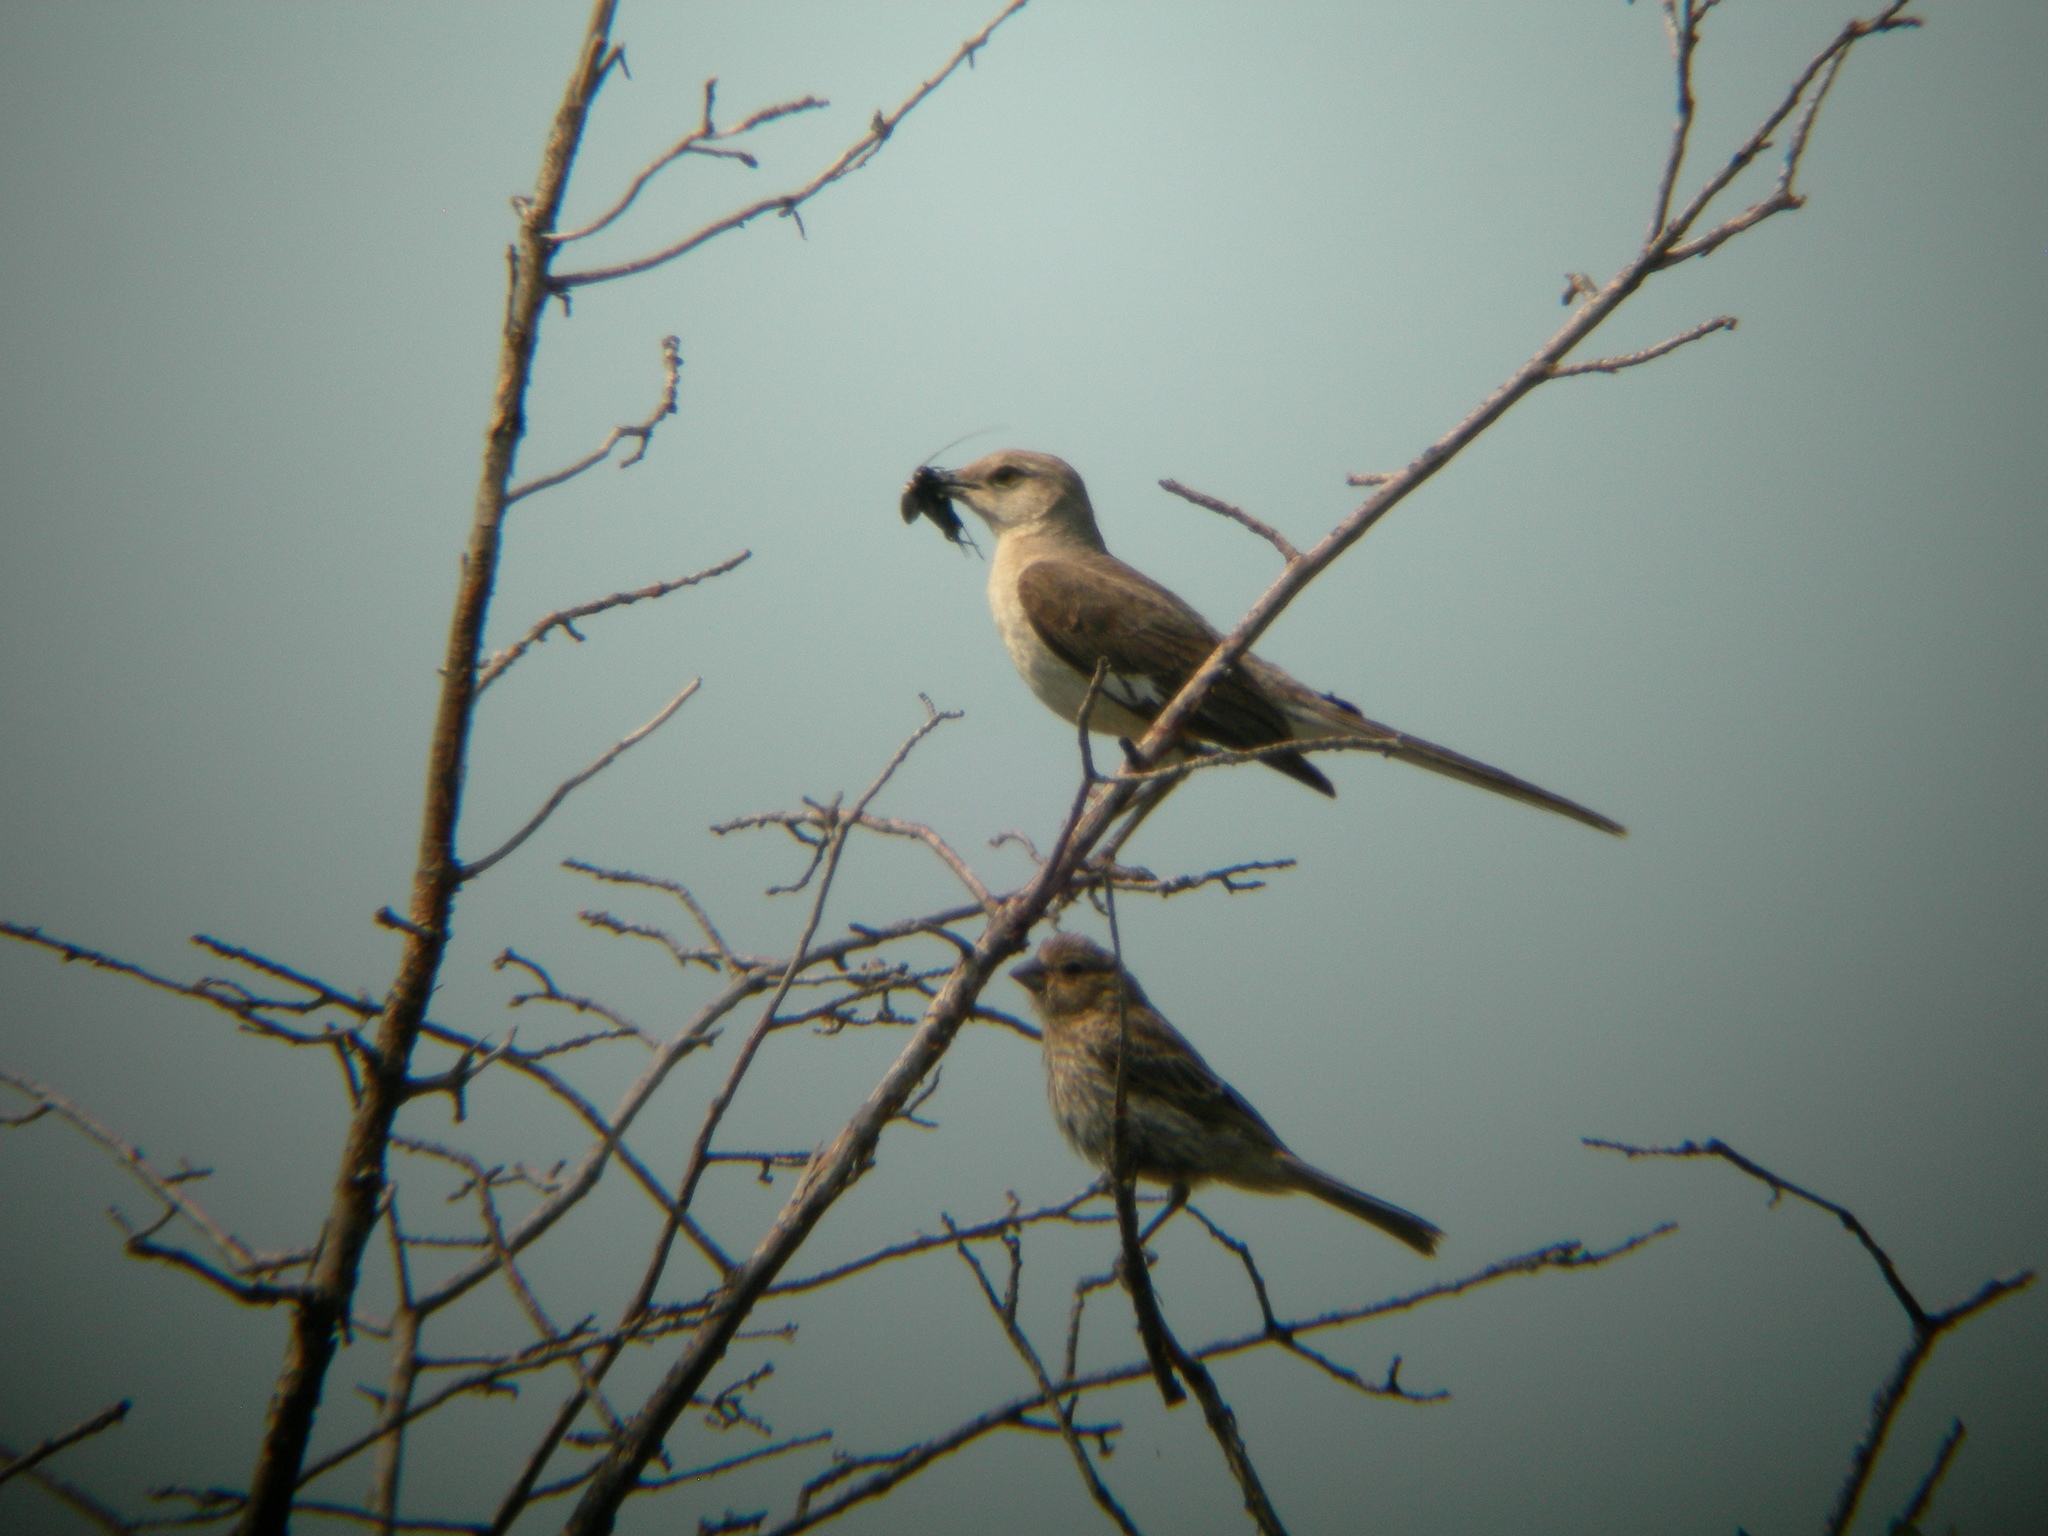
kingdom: Animalia
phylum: Chordata
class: Aves
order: Passeriformes
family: Mimidae
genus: Mimus
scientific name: Mimus polyglottos
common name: Northern mockingbird
